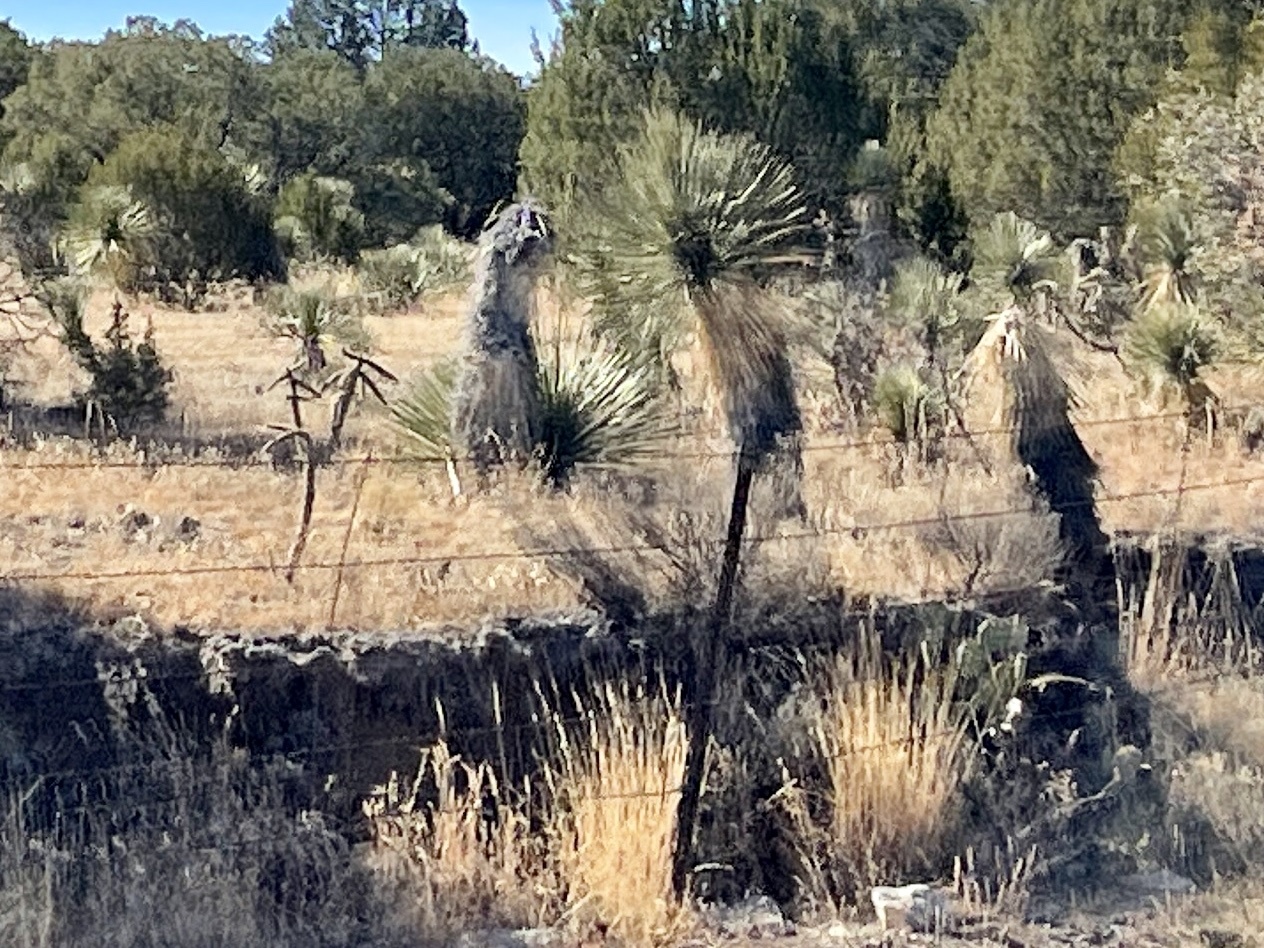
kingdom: Plantae
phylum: Tracheophyta
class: Liliopsida
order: Asparagales
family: Asparagaceae
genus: Yucca
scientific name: Yucca elata
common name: Palmella
